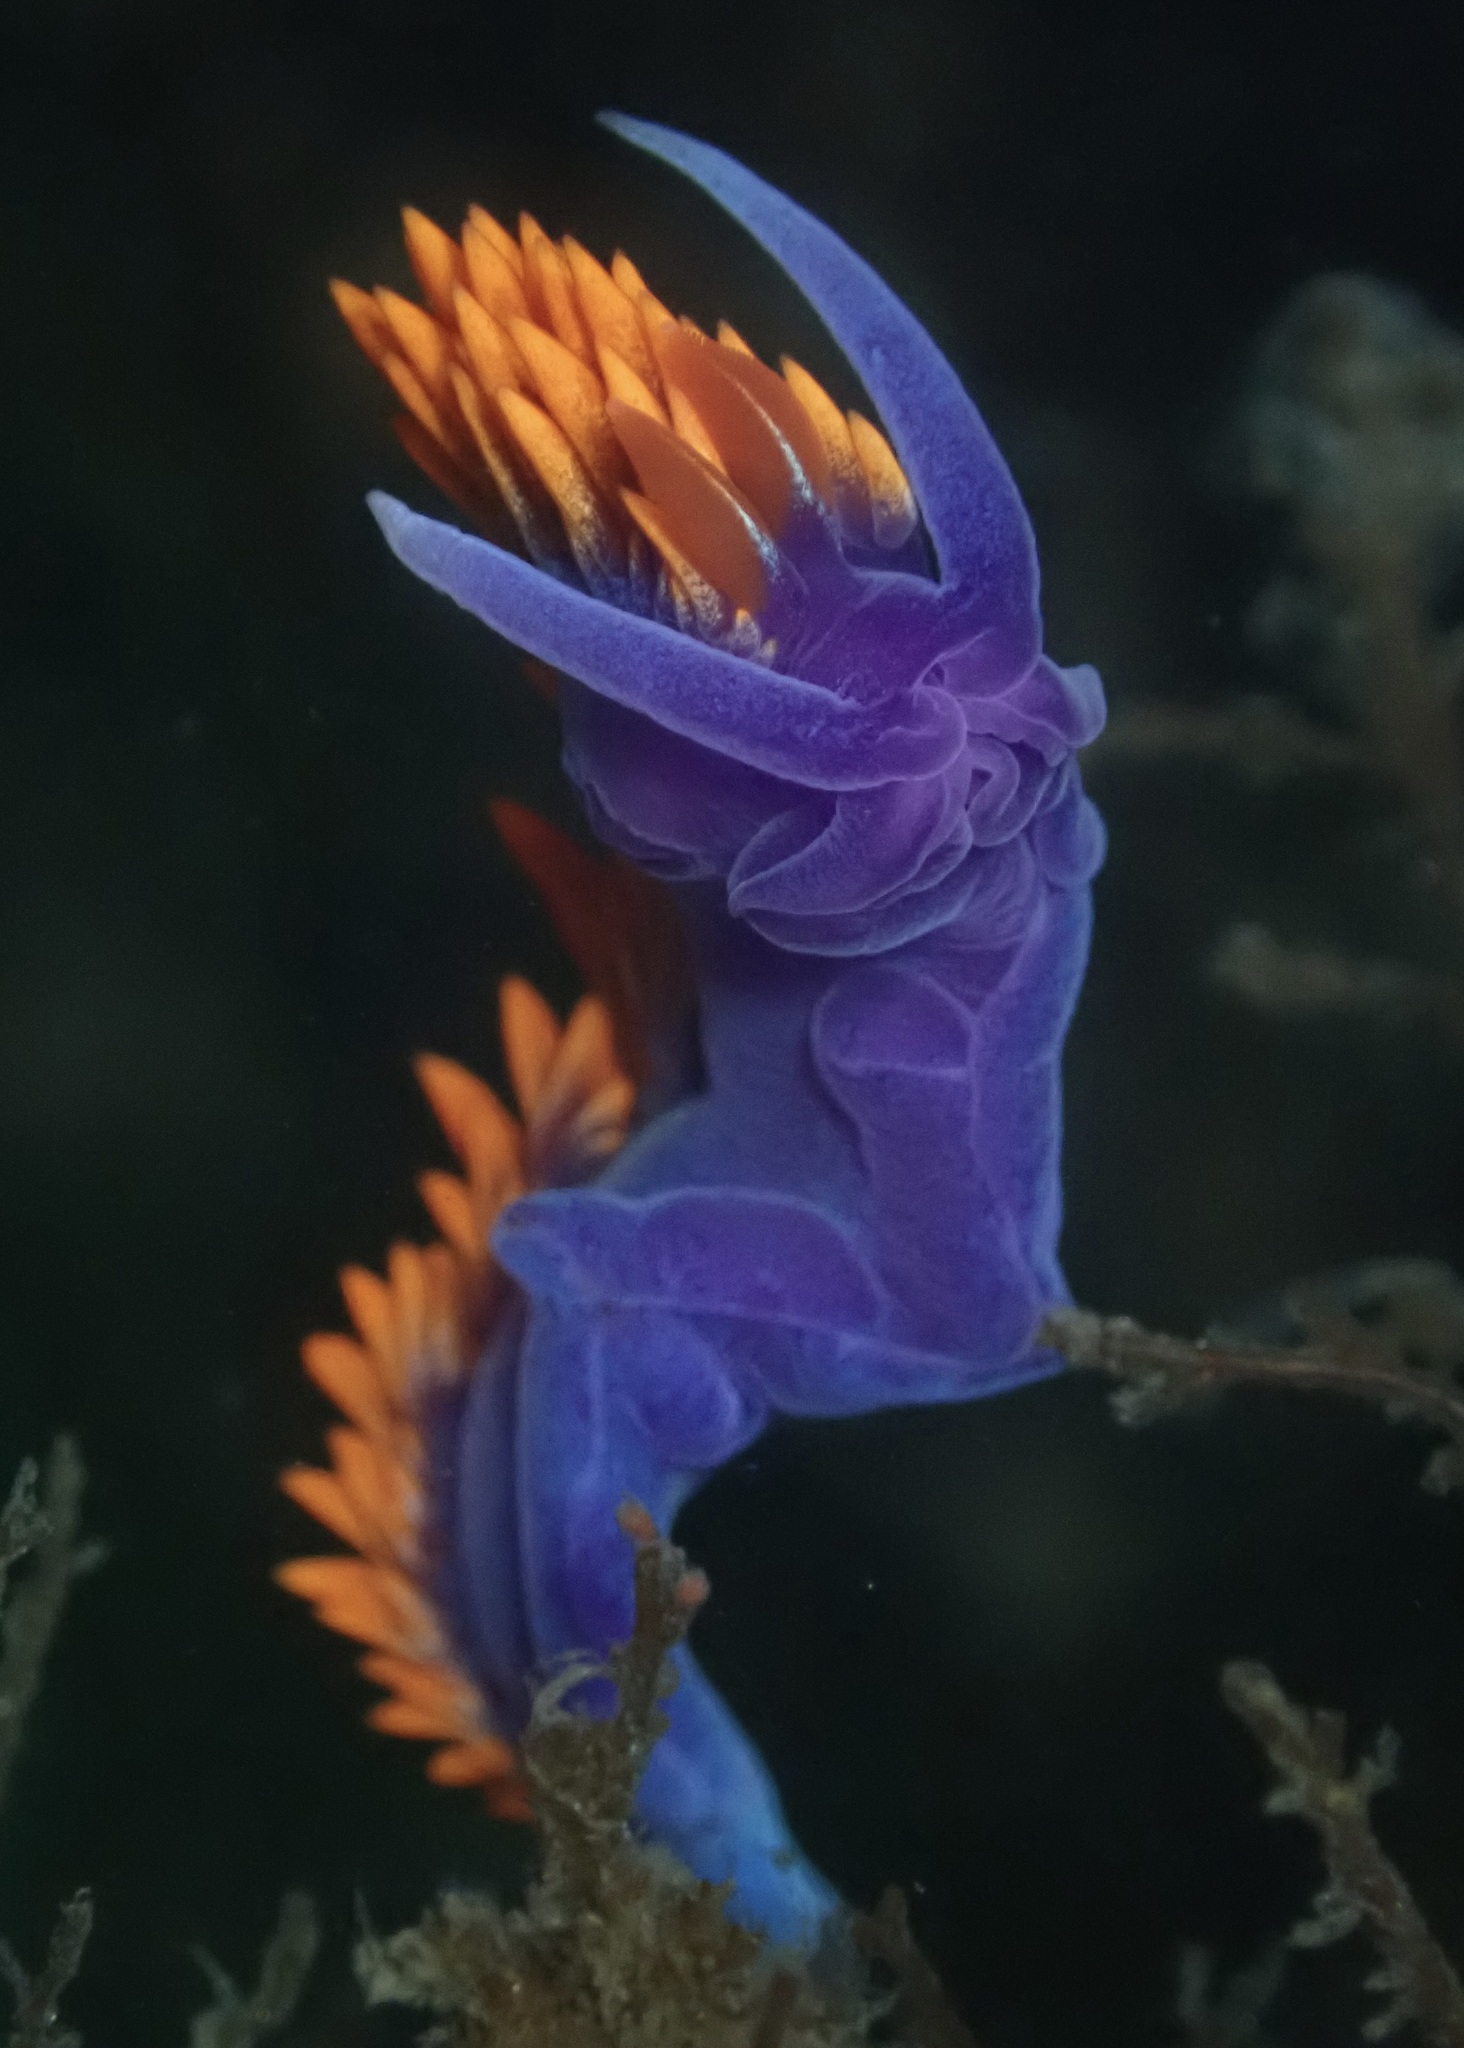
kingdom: Animalia
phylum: Mollusca
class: Gastropoda
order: Nudibranchia
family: Flabellinopsidae
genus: Flabellinopsis
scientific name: Flabellinopsis iodinea
